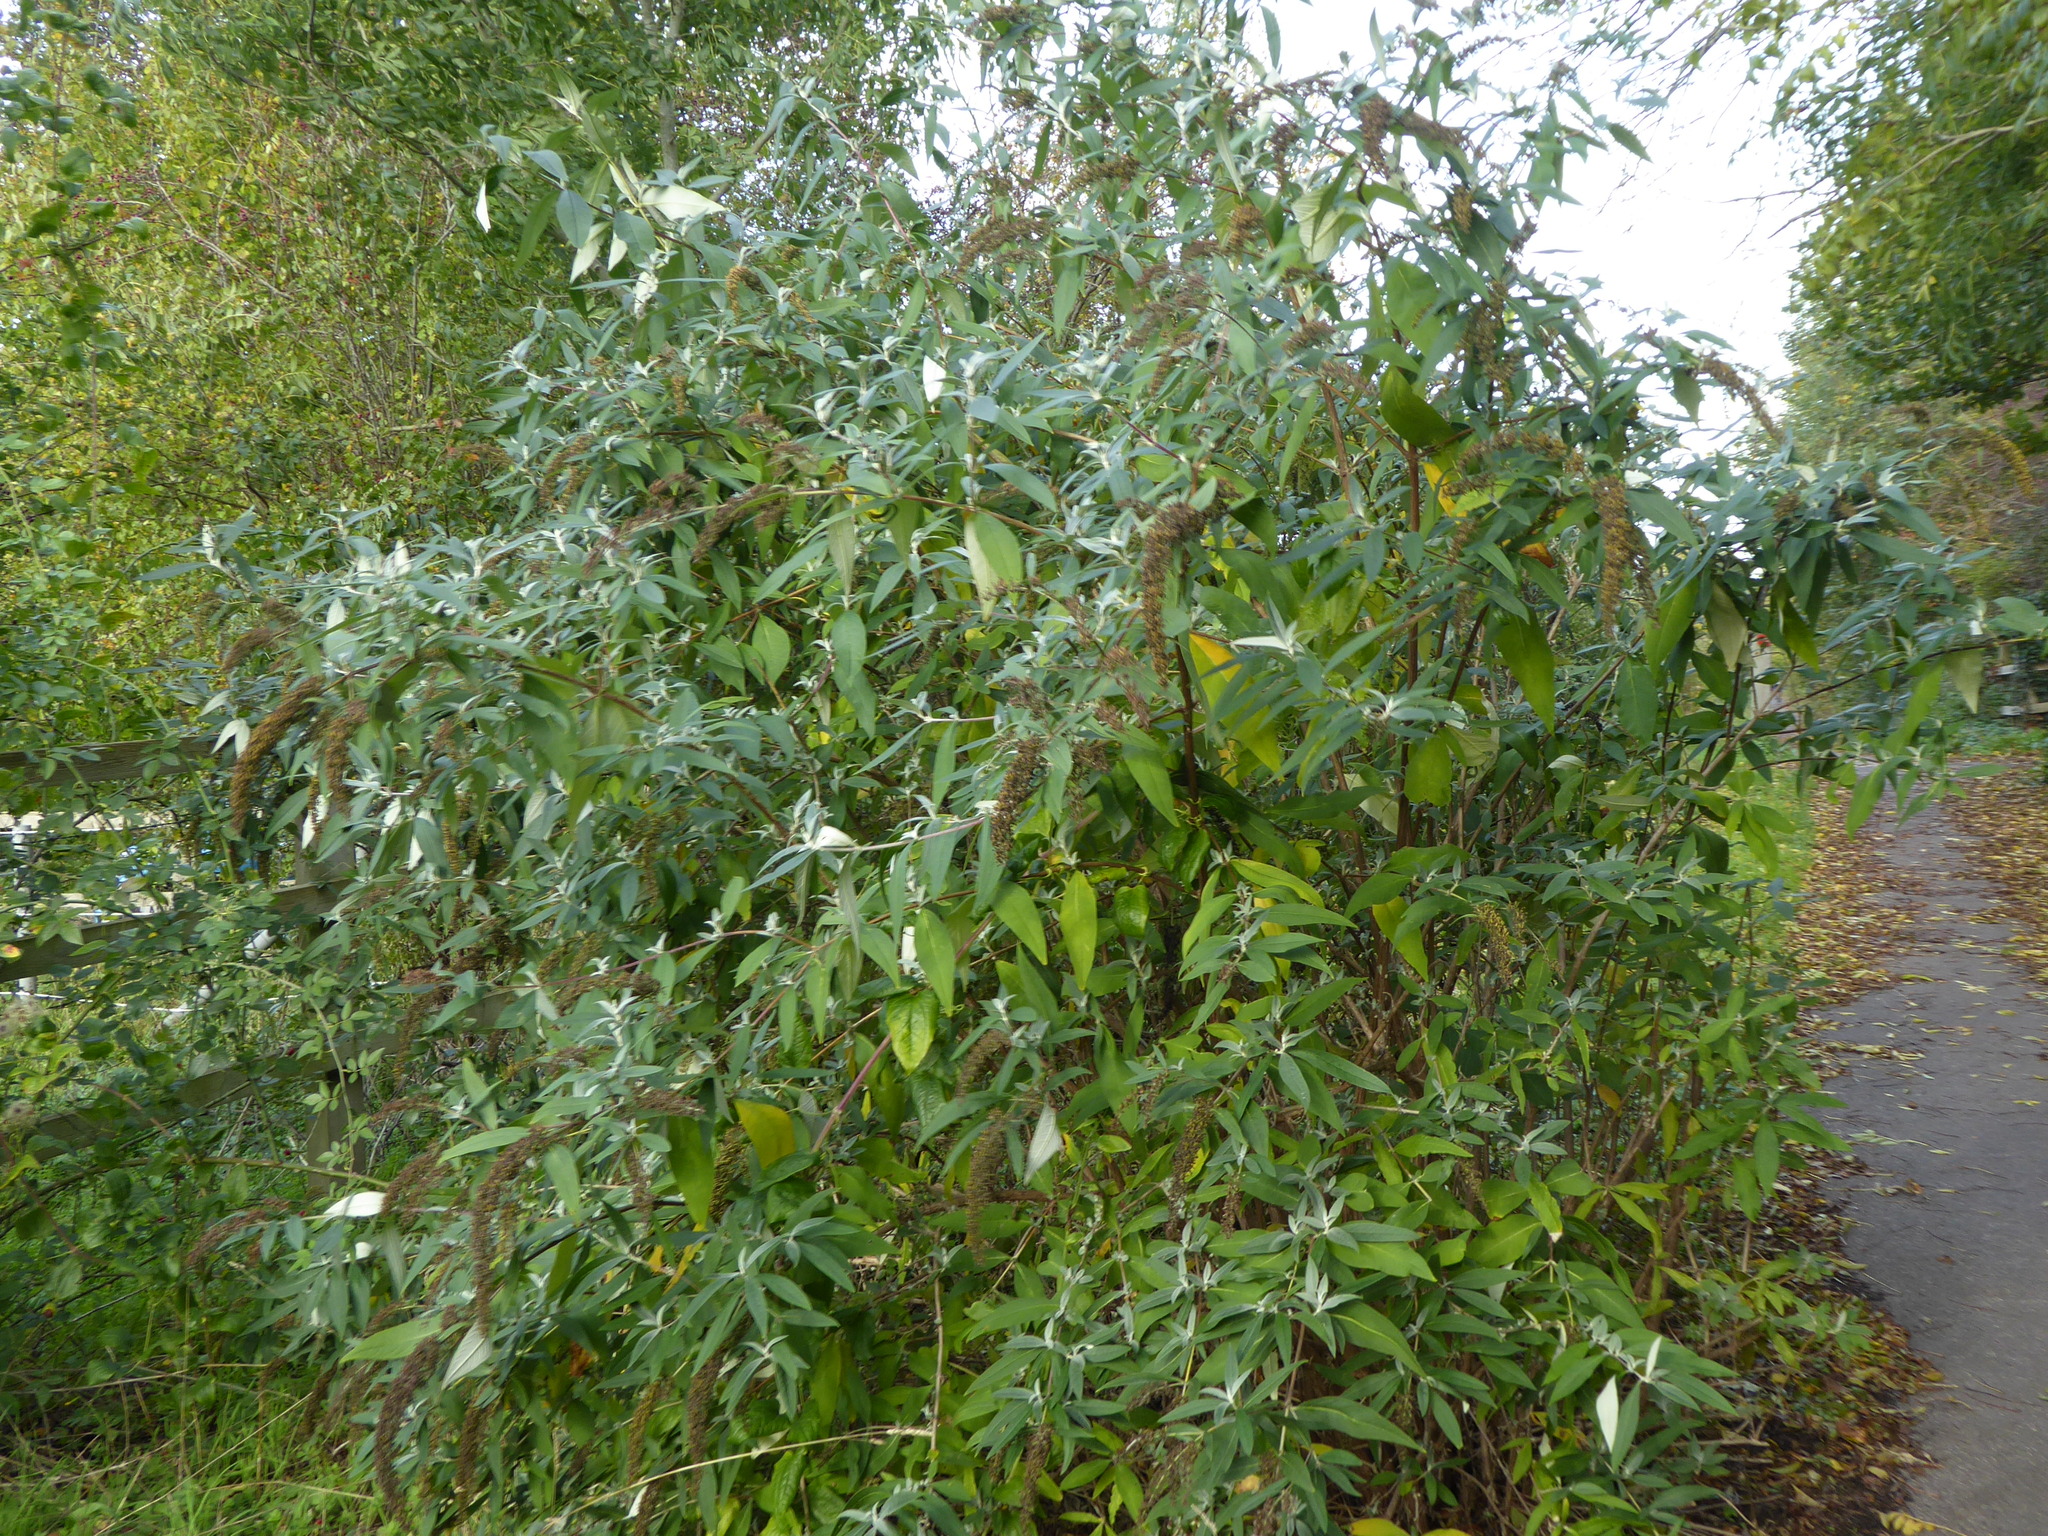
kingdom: Plantae
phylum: Tracheophyta
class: Magnoliopsida
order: Lamiales
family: Scrophulariaceae
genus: Buddleja
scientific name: Buddleja davidii
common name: Butterfly-bush
